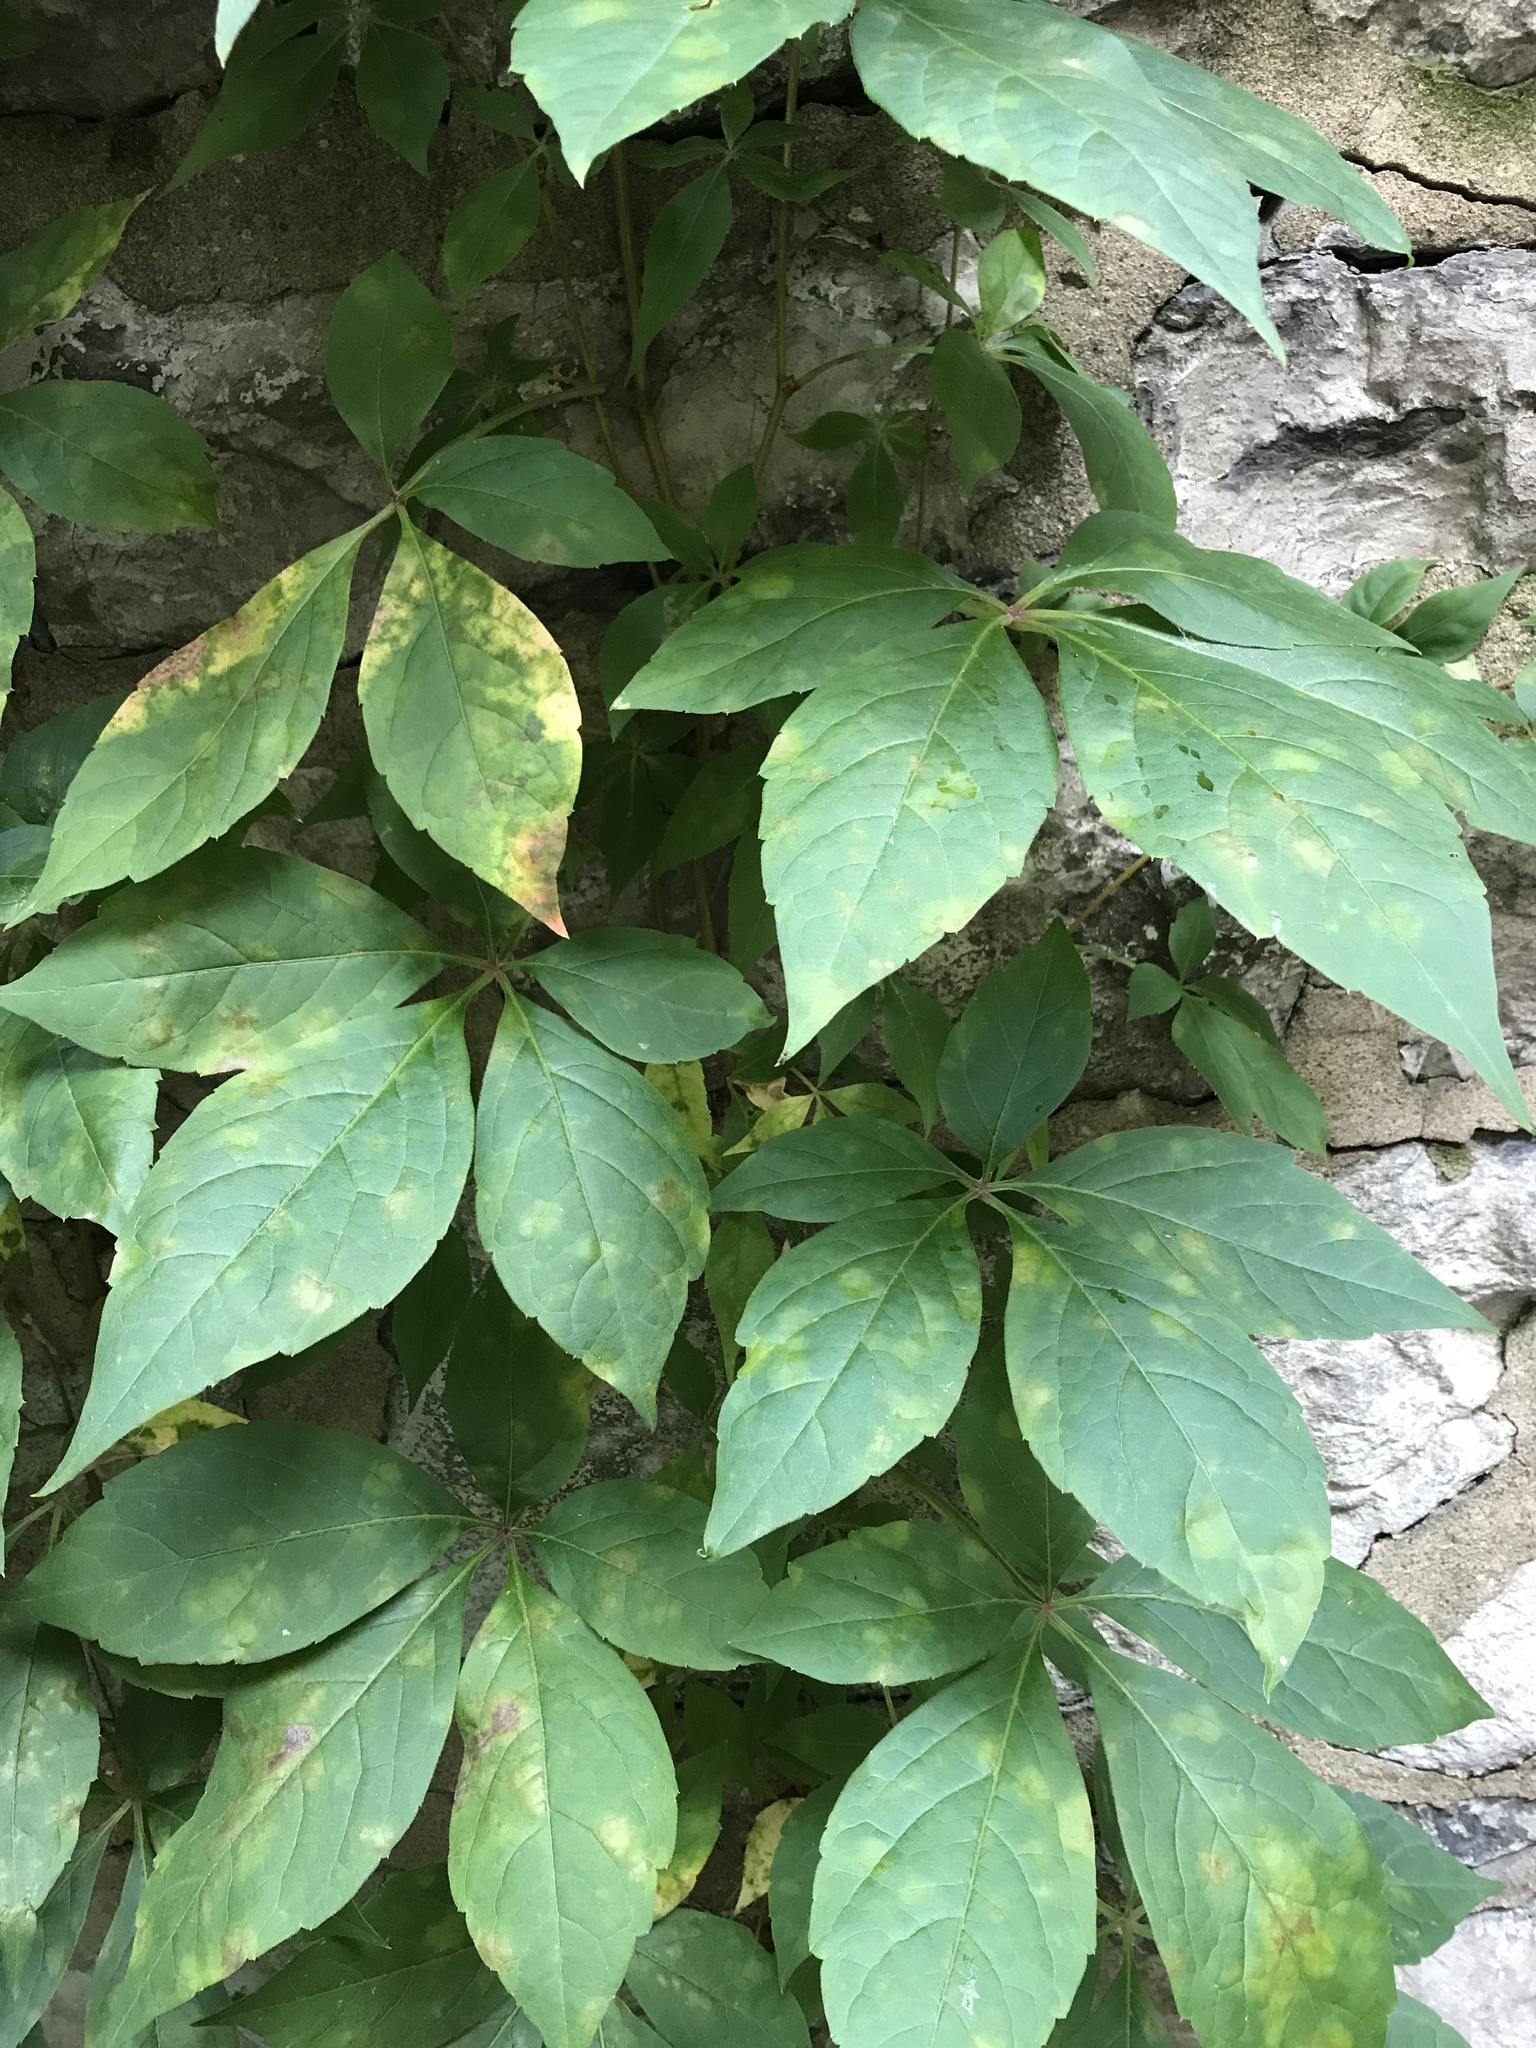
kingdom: Plantae
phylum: Tracheophyta
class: Magnoliopsida
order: Vitales
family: Vitaceae
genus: Parthenocissus
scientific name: Parthenocissus quinquefolia
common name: Virginia-creeper
